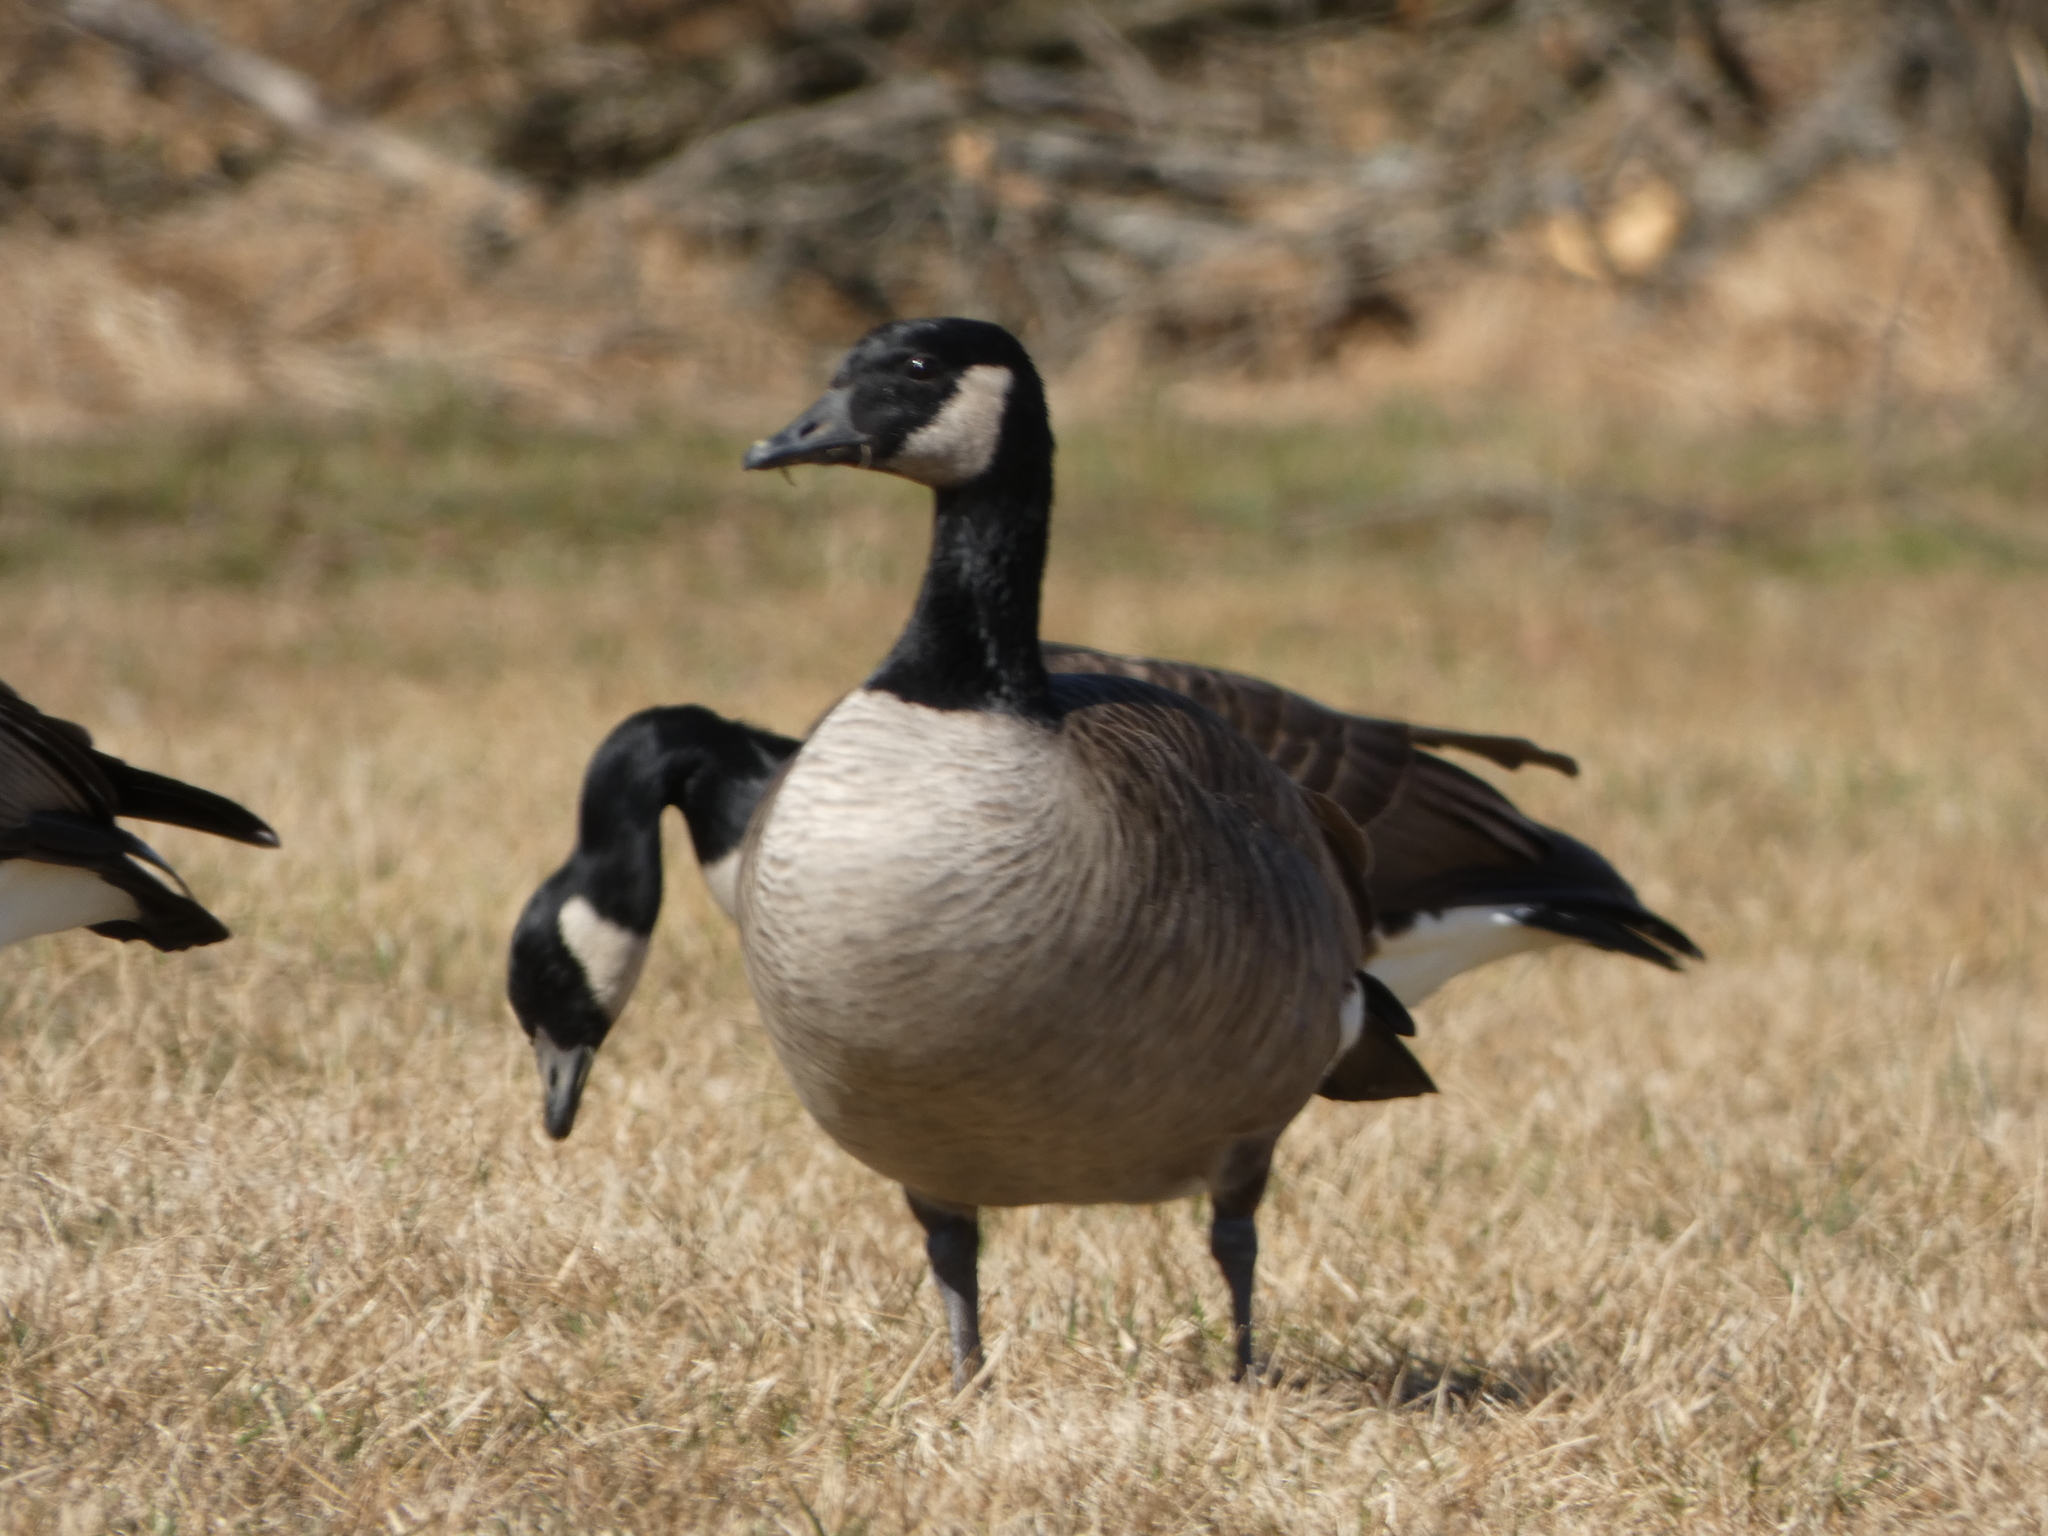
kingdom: Animalia
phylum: Chordata
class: Aves
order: Anseriformes
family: Anatidae
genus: Branta
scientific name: Branta canadensis
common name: Canada goose
